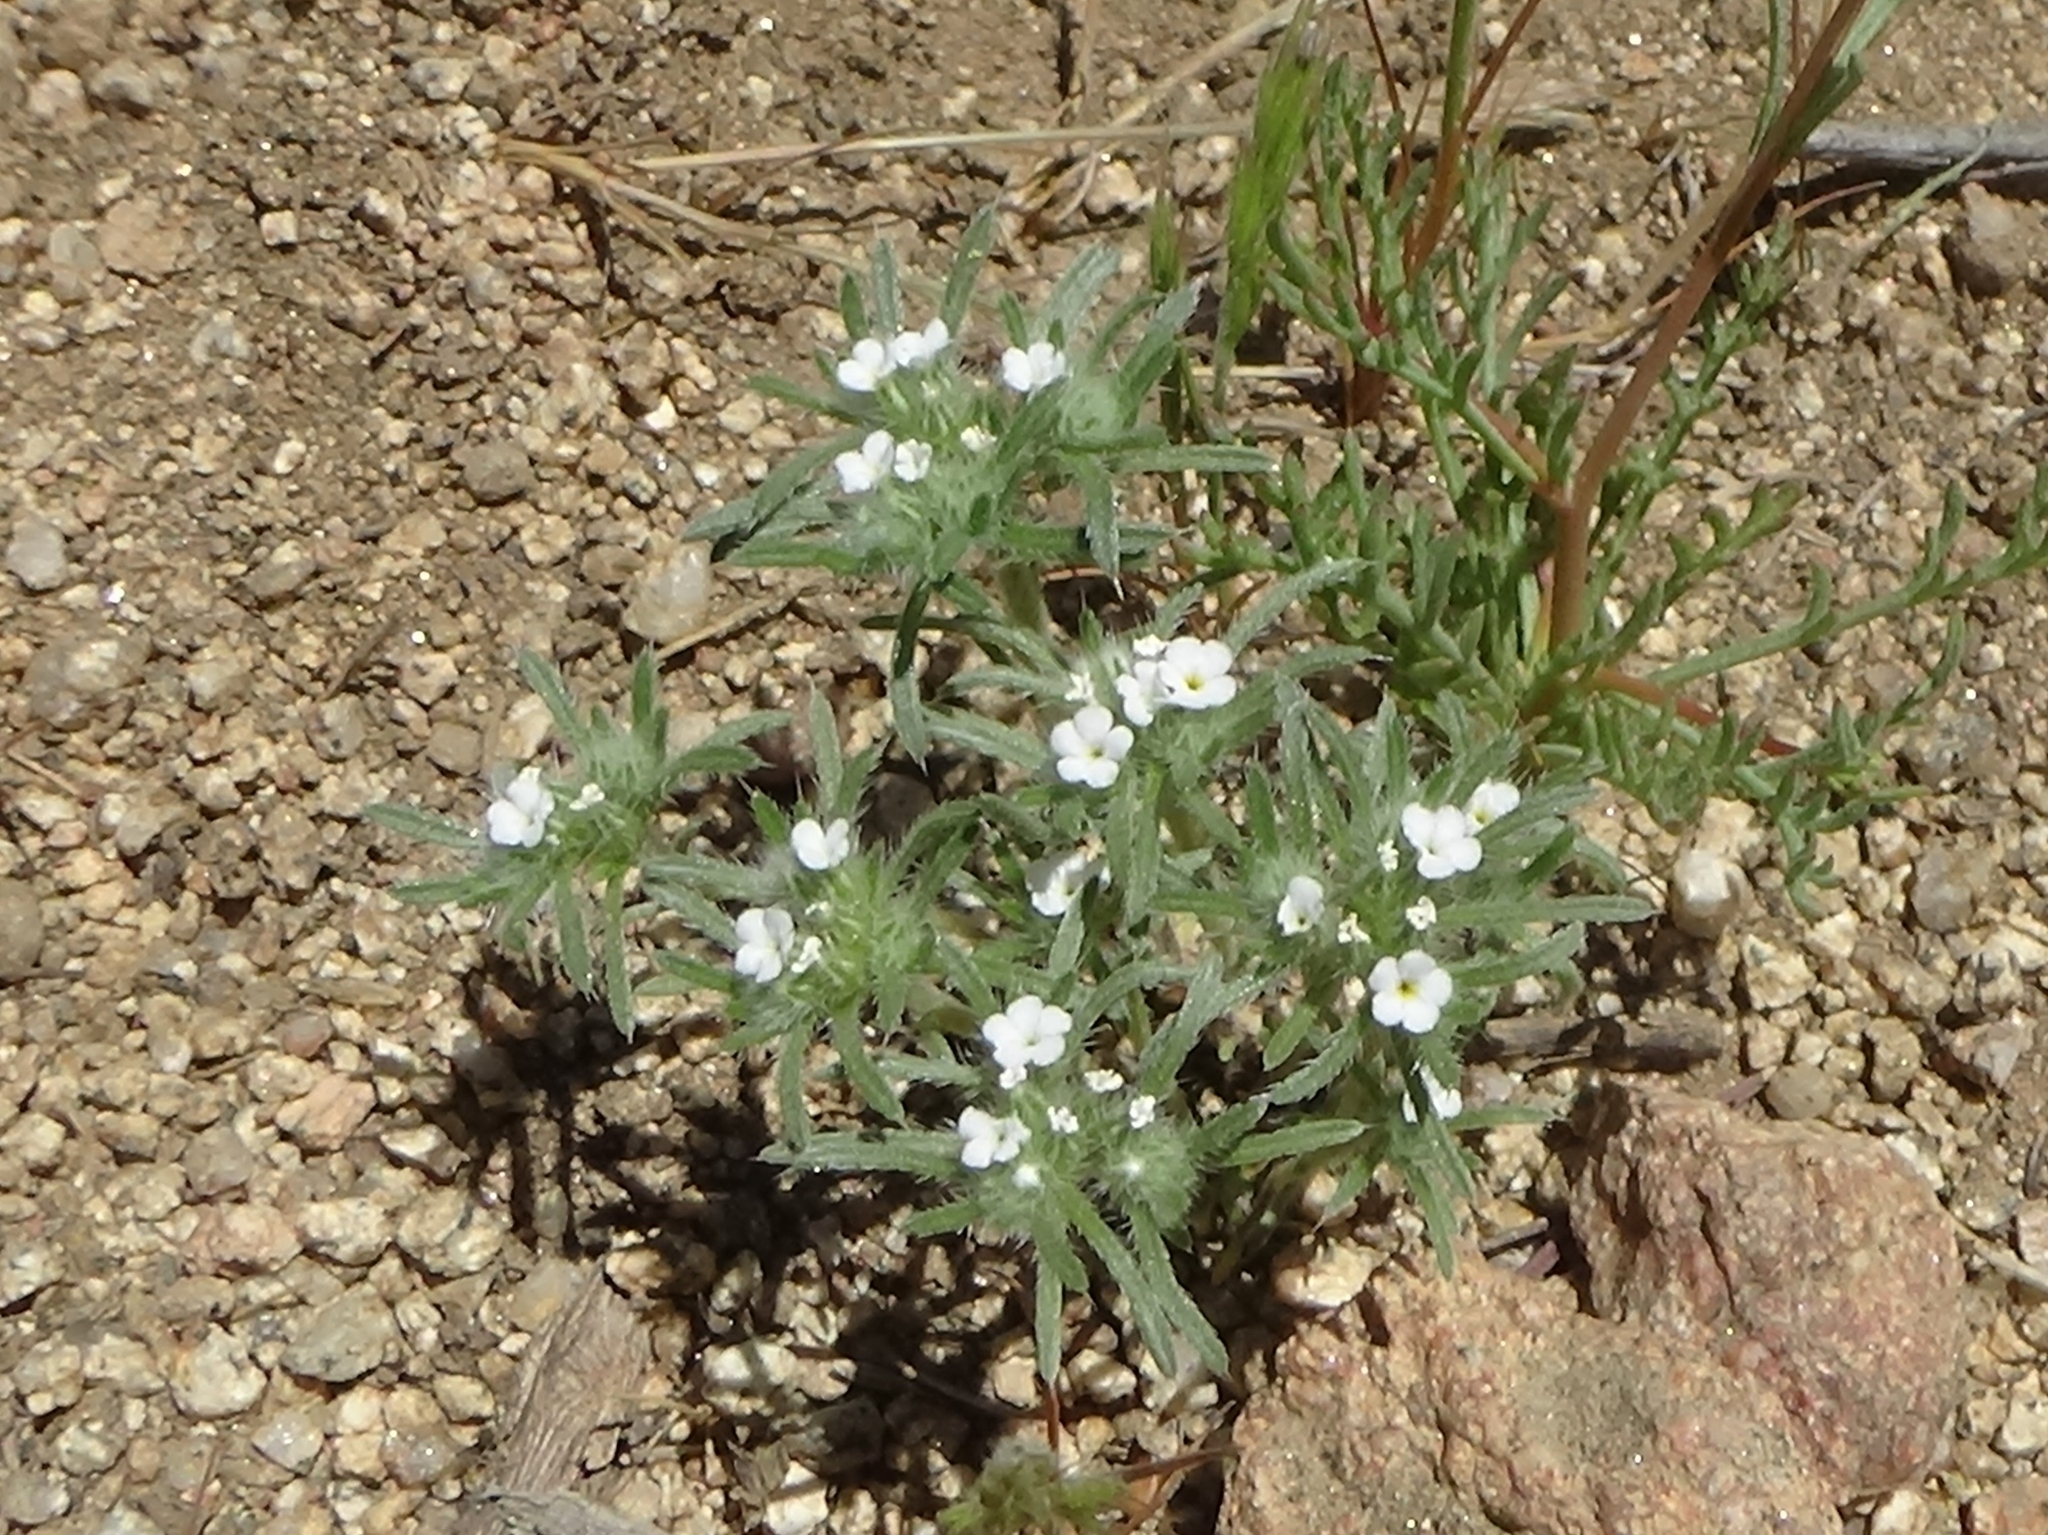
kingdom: Plantae
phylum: Tracheophyta
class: Magnoliopsida
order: Boraginales
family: Boraginaceae
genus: Greeneocharis
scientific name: Greeneocharis circumscissa
